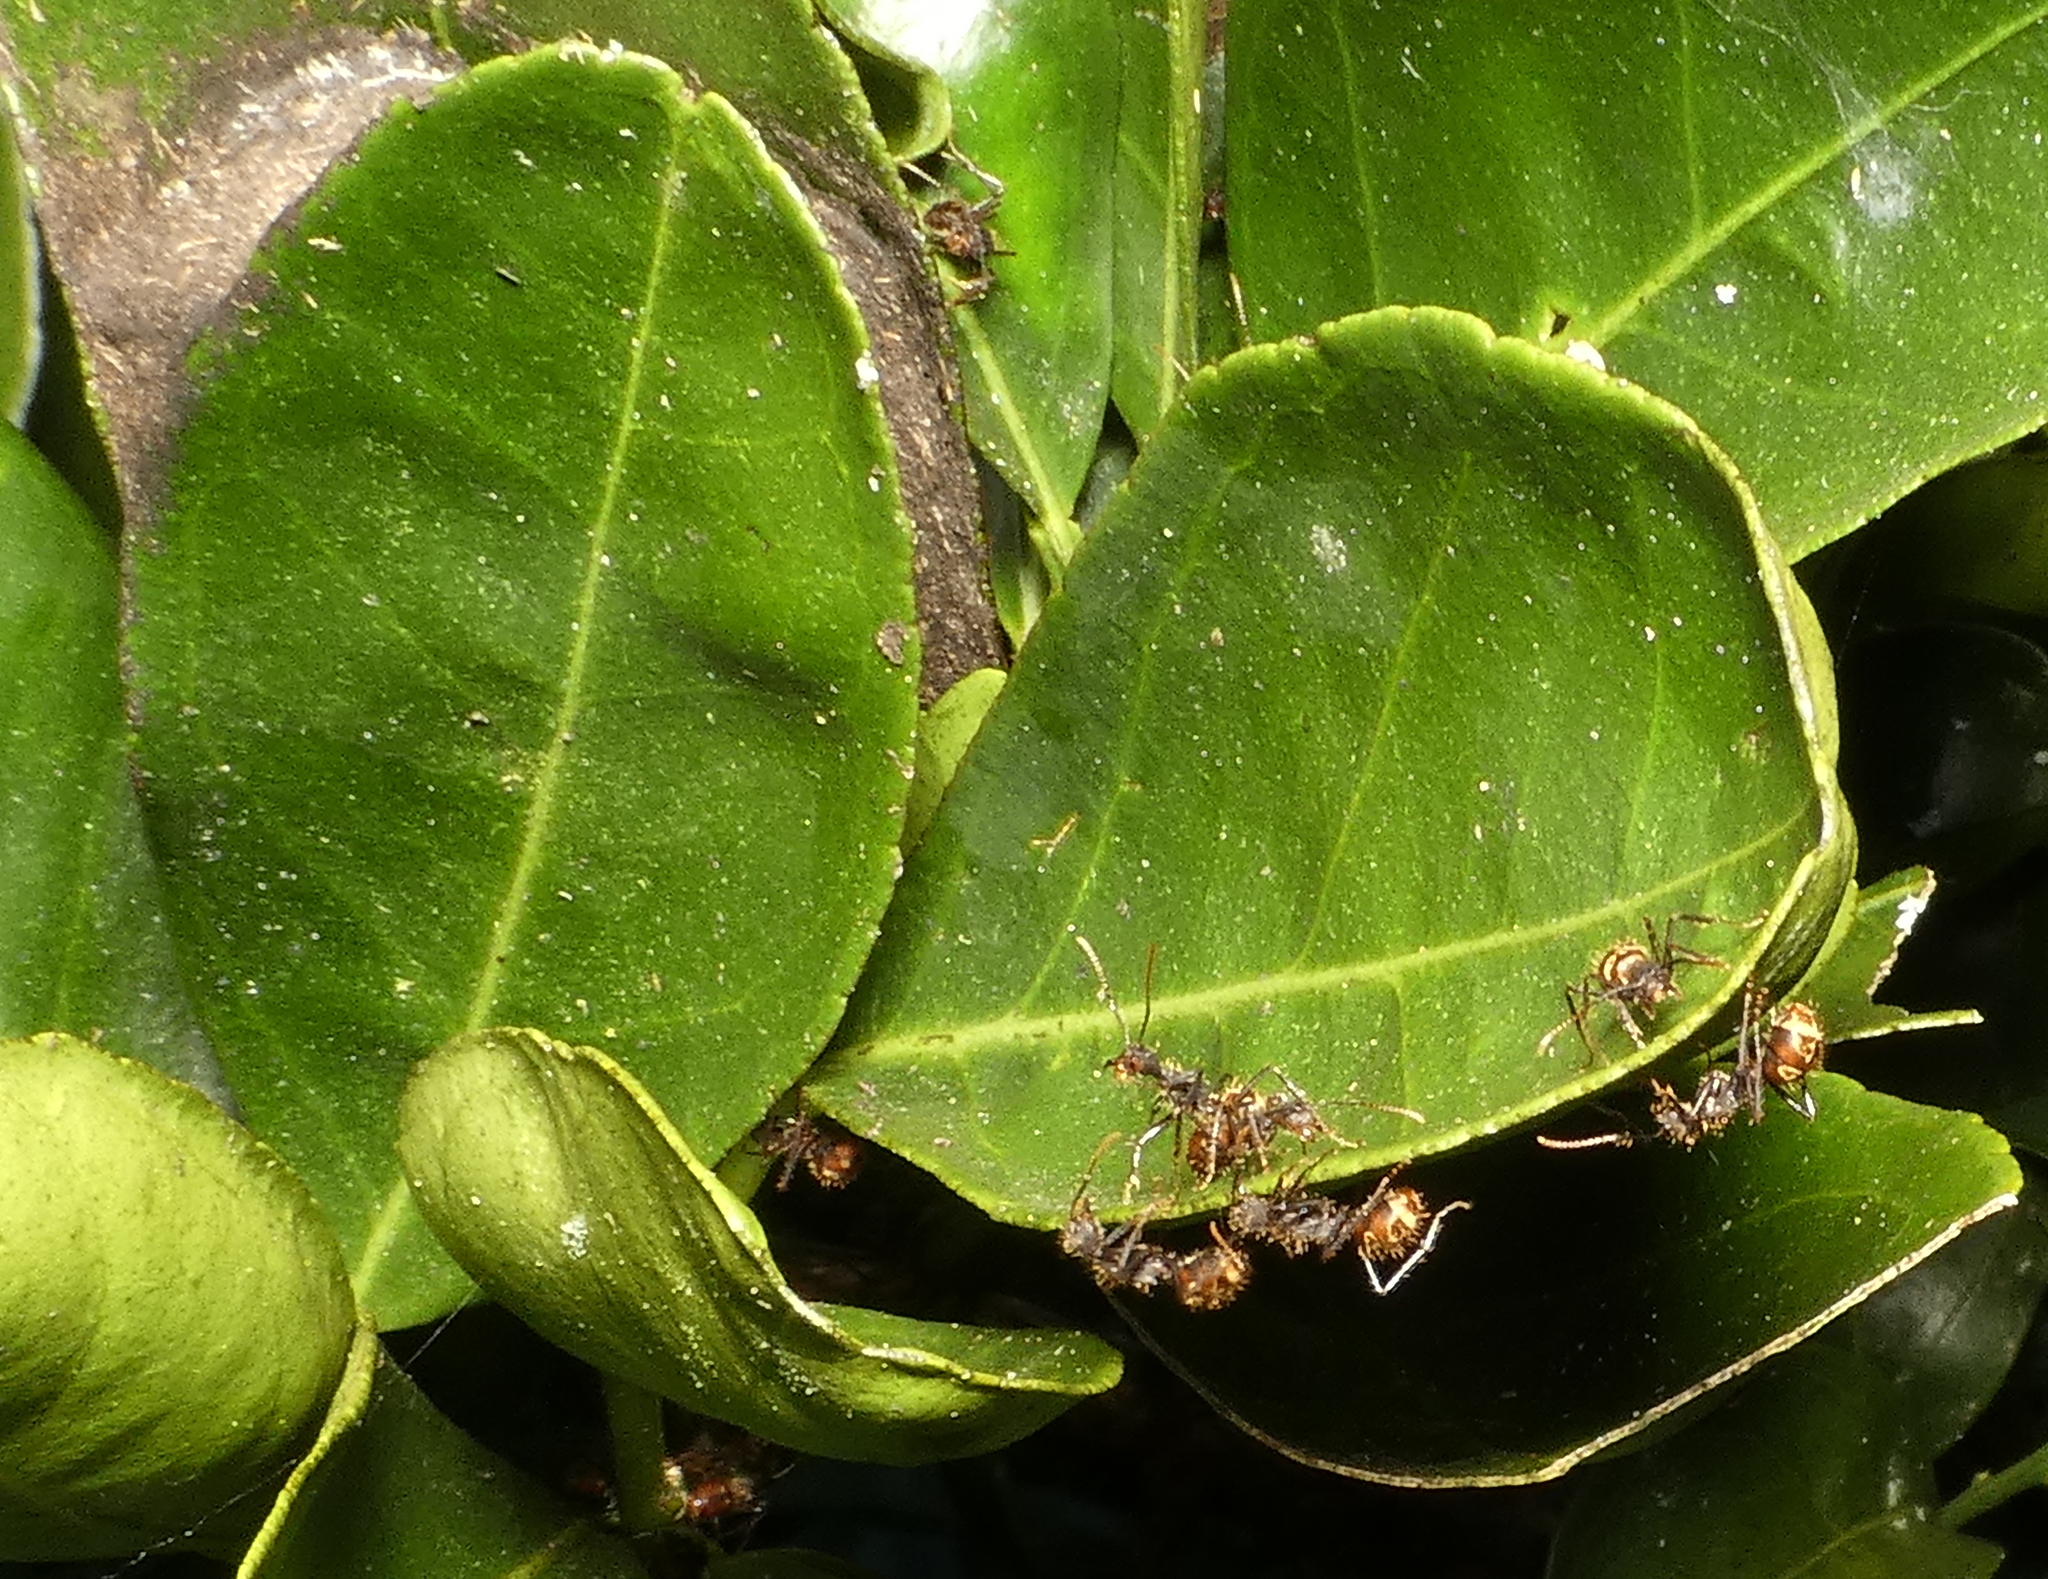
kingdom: Animalia
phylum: Arthropoda
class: Insecta
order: Hymenoptera
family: Formicidae
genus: Dolichoderus
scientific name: Dolichoderus bidens
